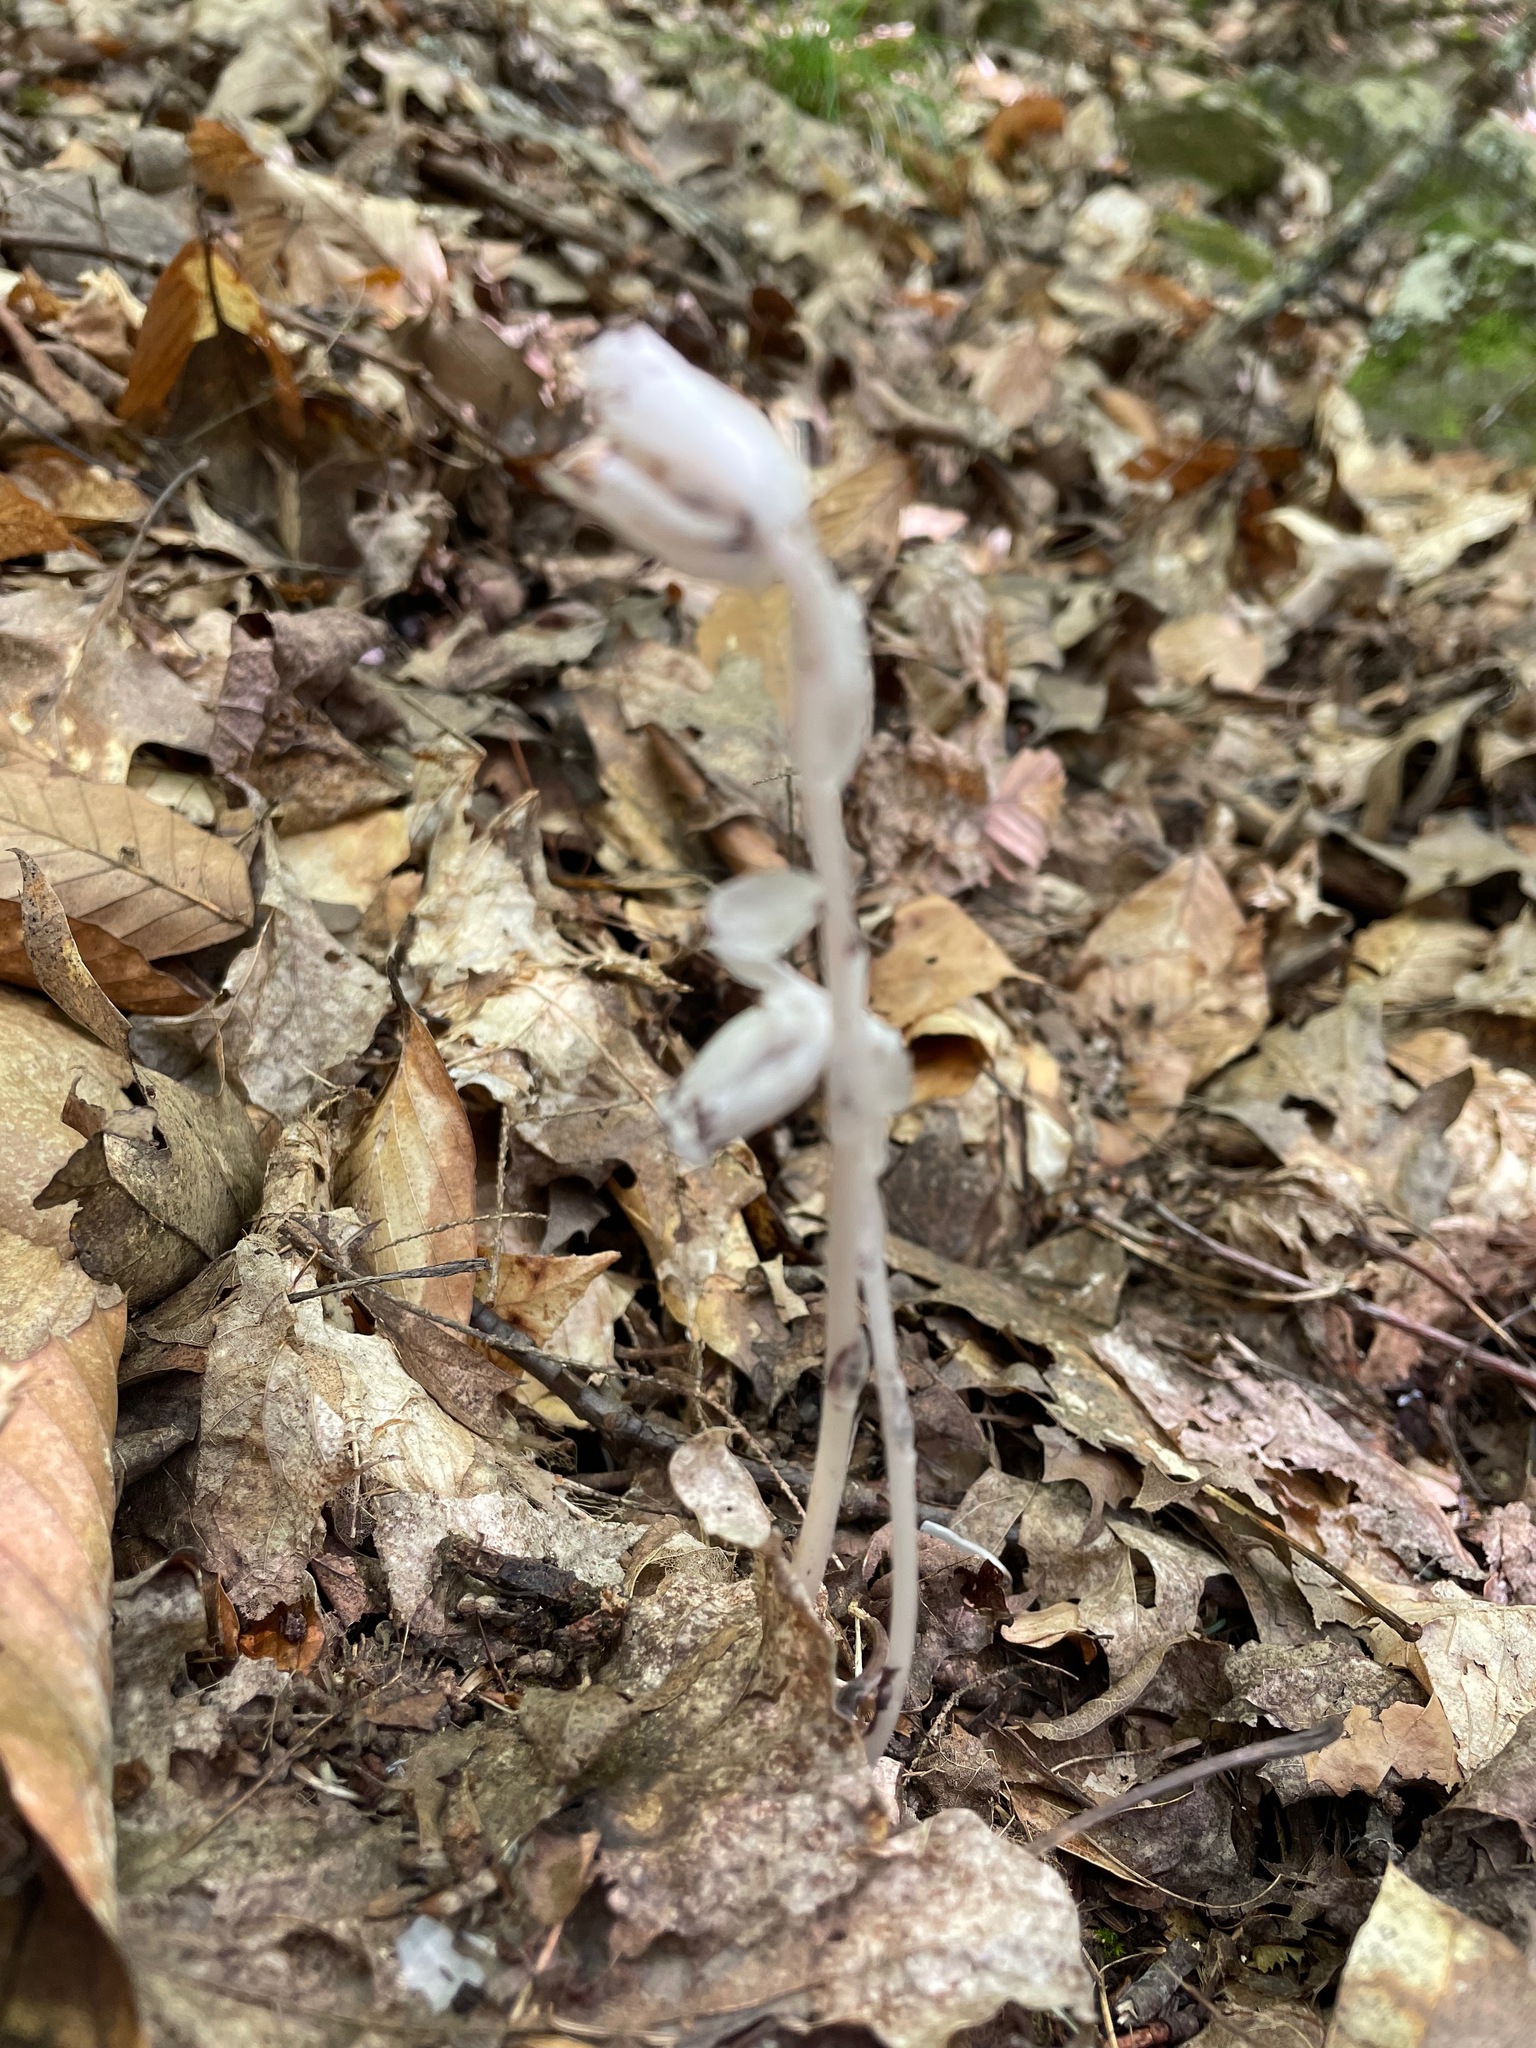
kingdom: Plantae
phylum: Tracheophyta
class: Magnoliopsida
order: Ericales
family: Ericaceae
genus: Monotropa
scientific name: Monotropa uniflora
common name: Convulsion root
